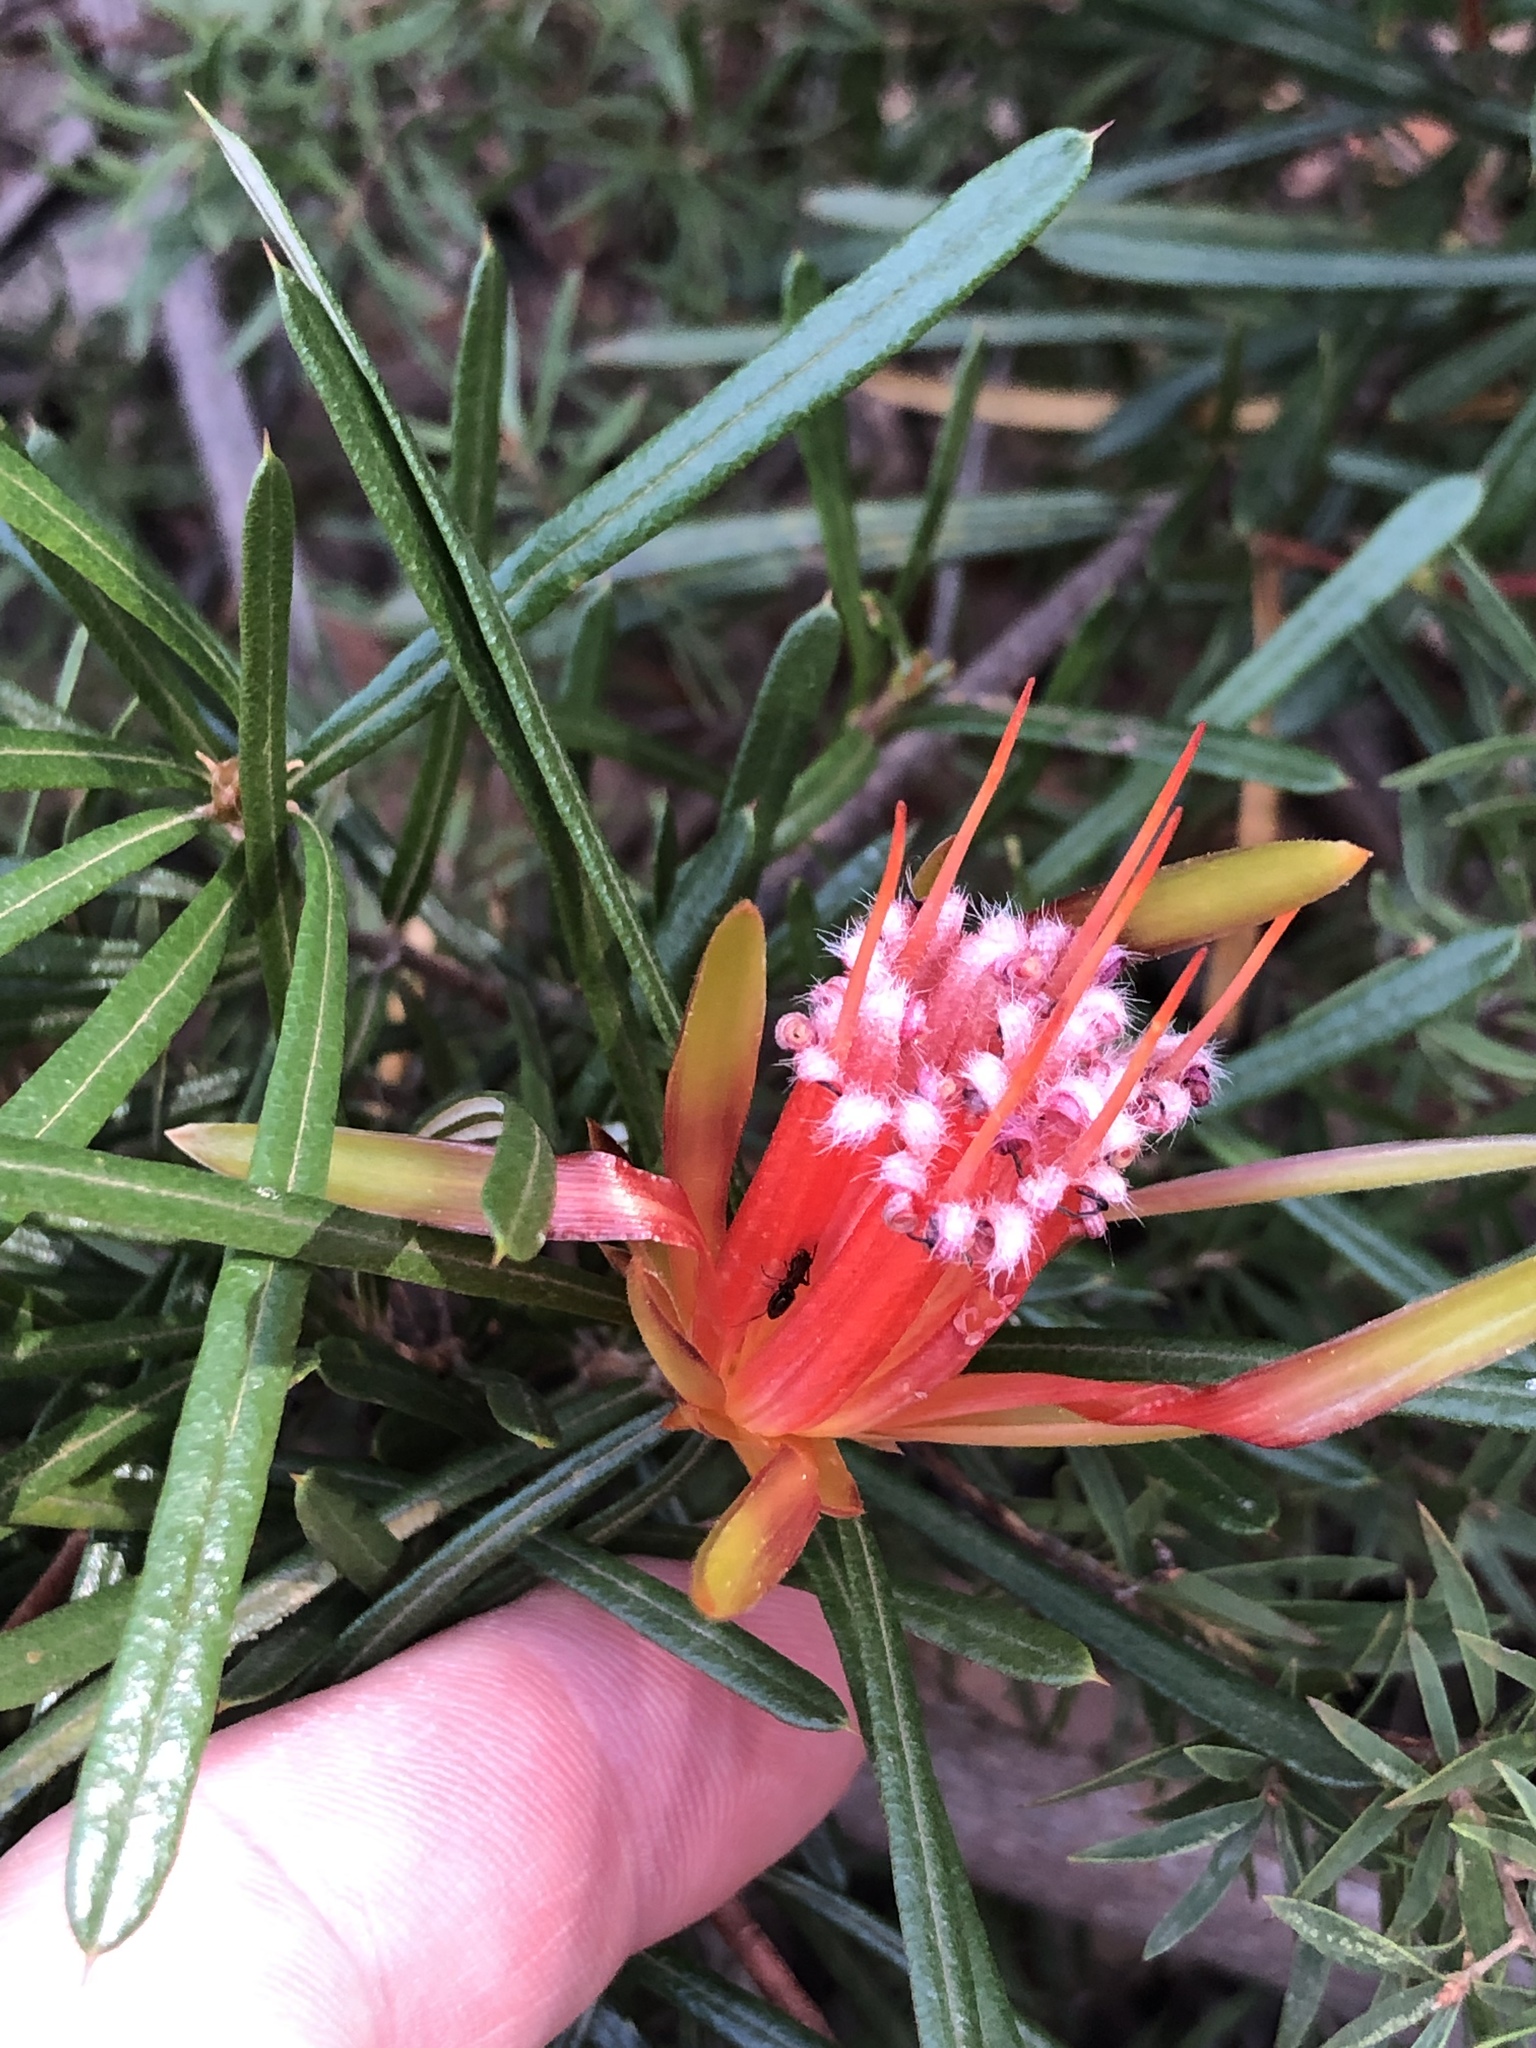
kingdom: Plantae
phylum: Tracheophyta
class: Magnoliopsida
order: Proteales
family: Proteaceae
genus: Lambertia
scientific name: Lambertia formosa
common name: Mountain-devil
